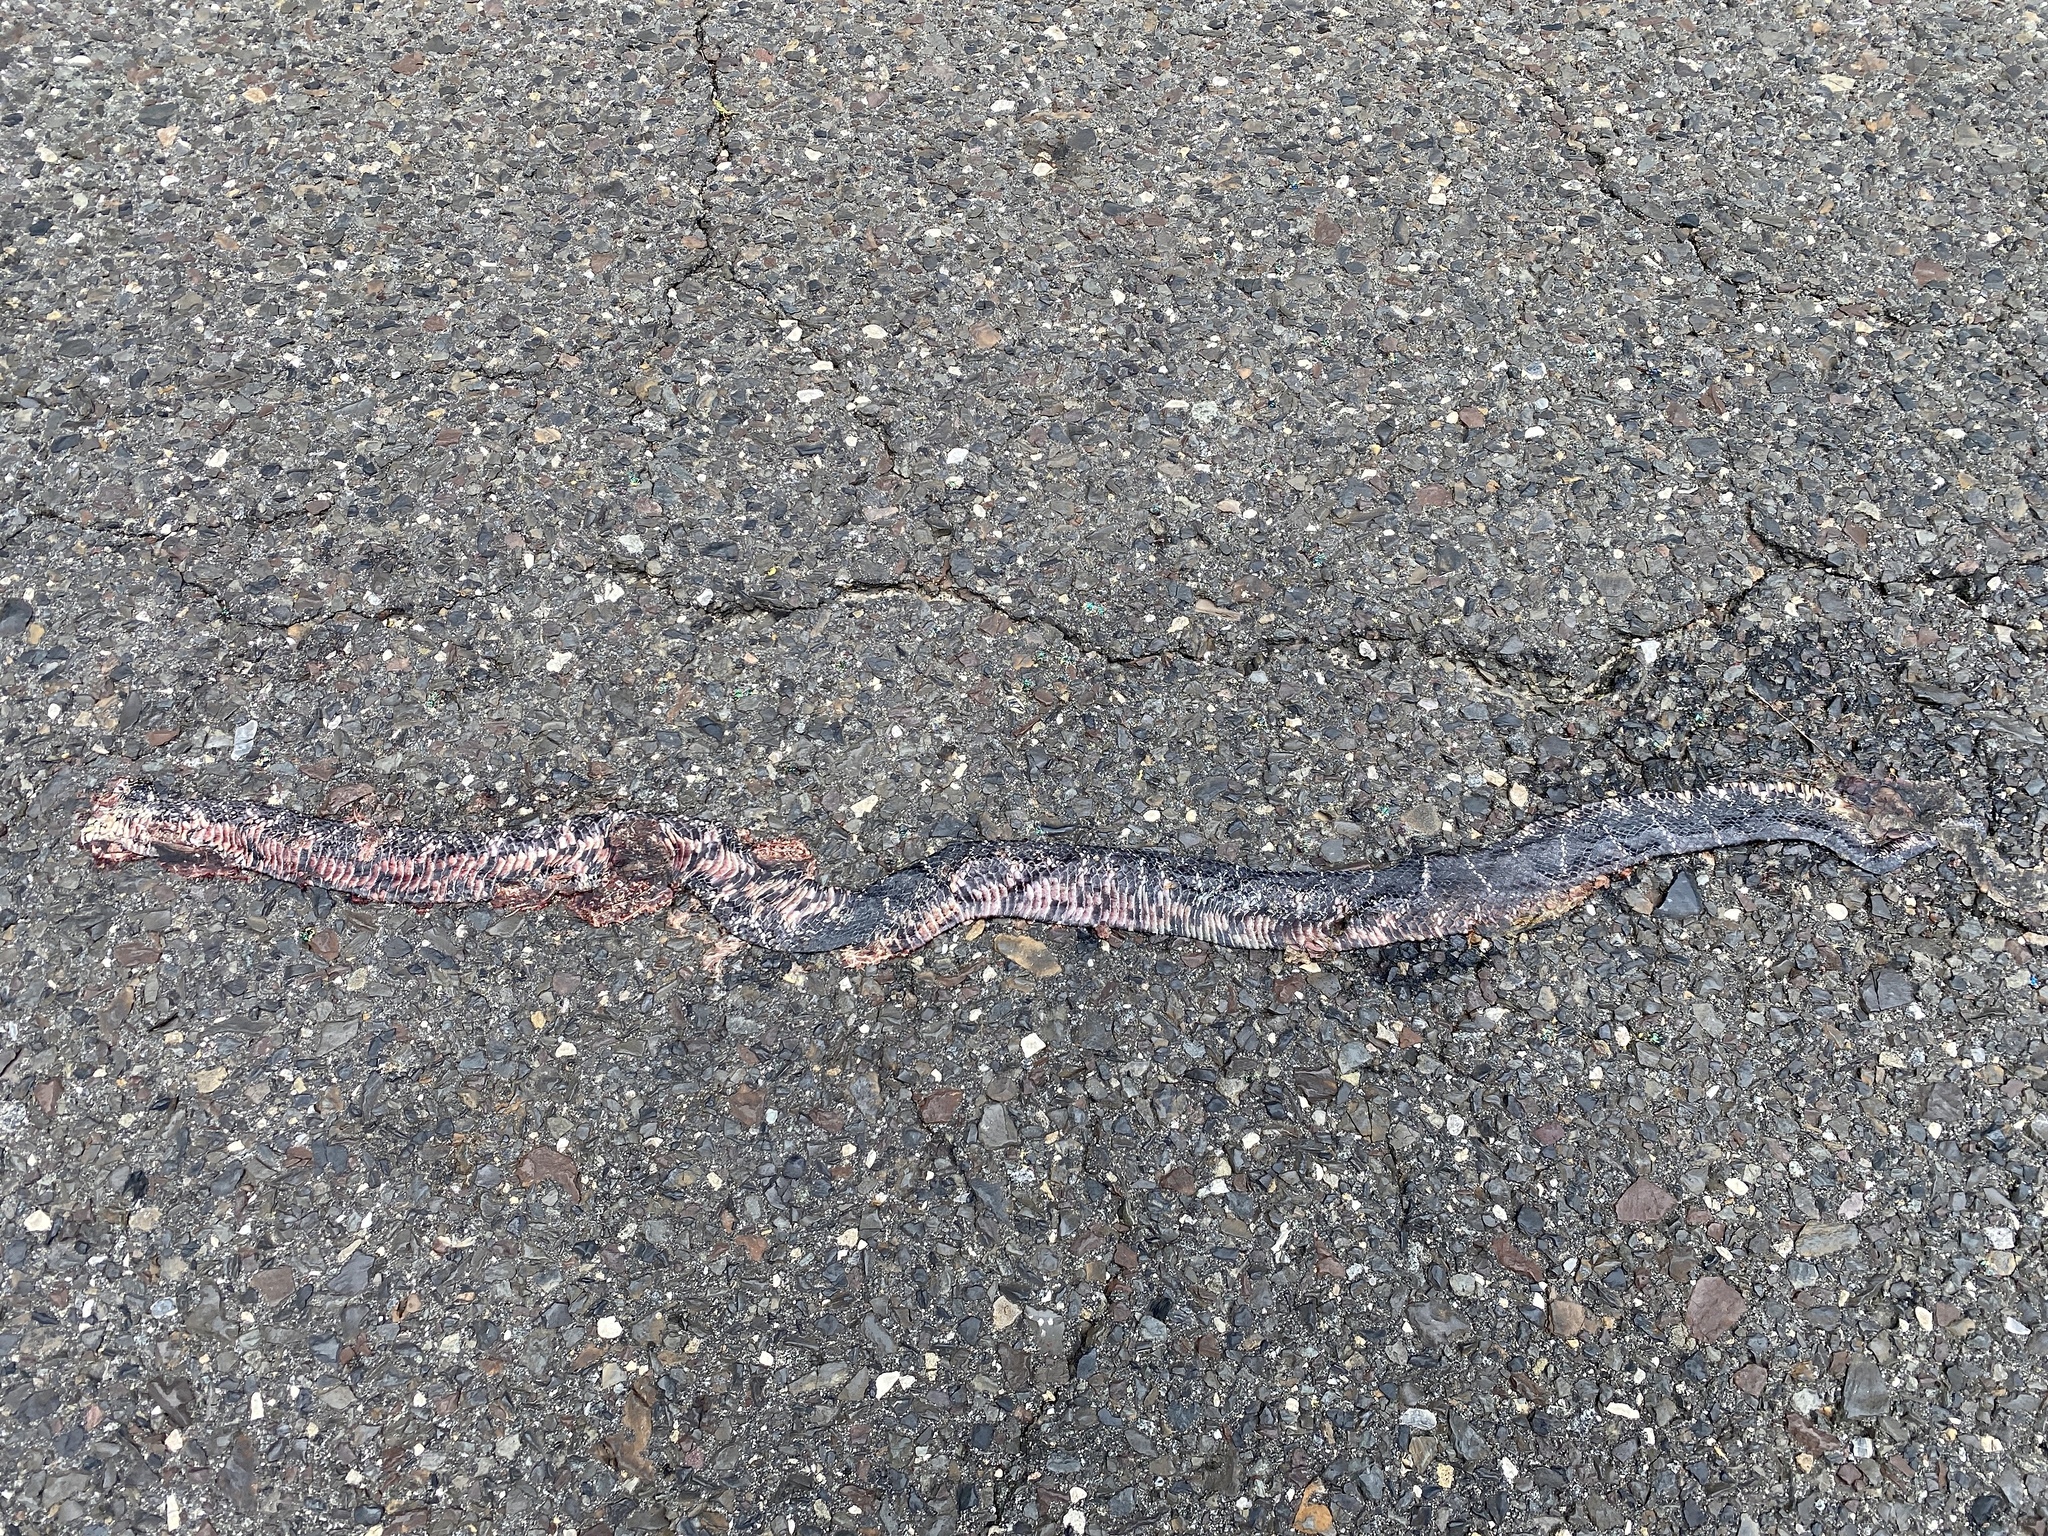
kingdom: Animalia
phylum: Chordata
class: Squamata
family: Colubridae
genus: Lampropeltis
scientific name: Lampropeltis getula
